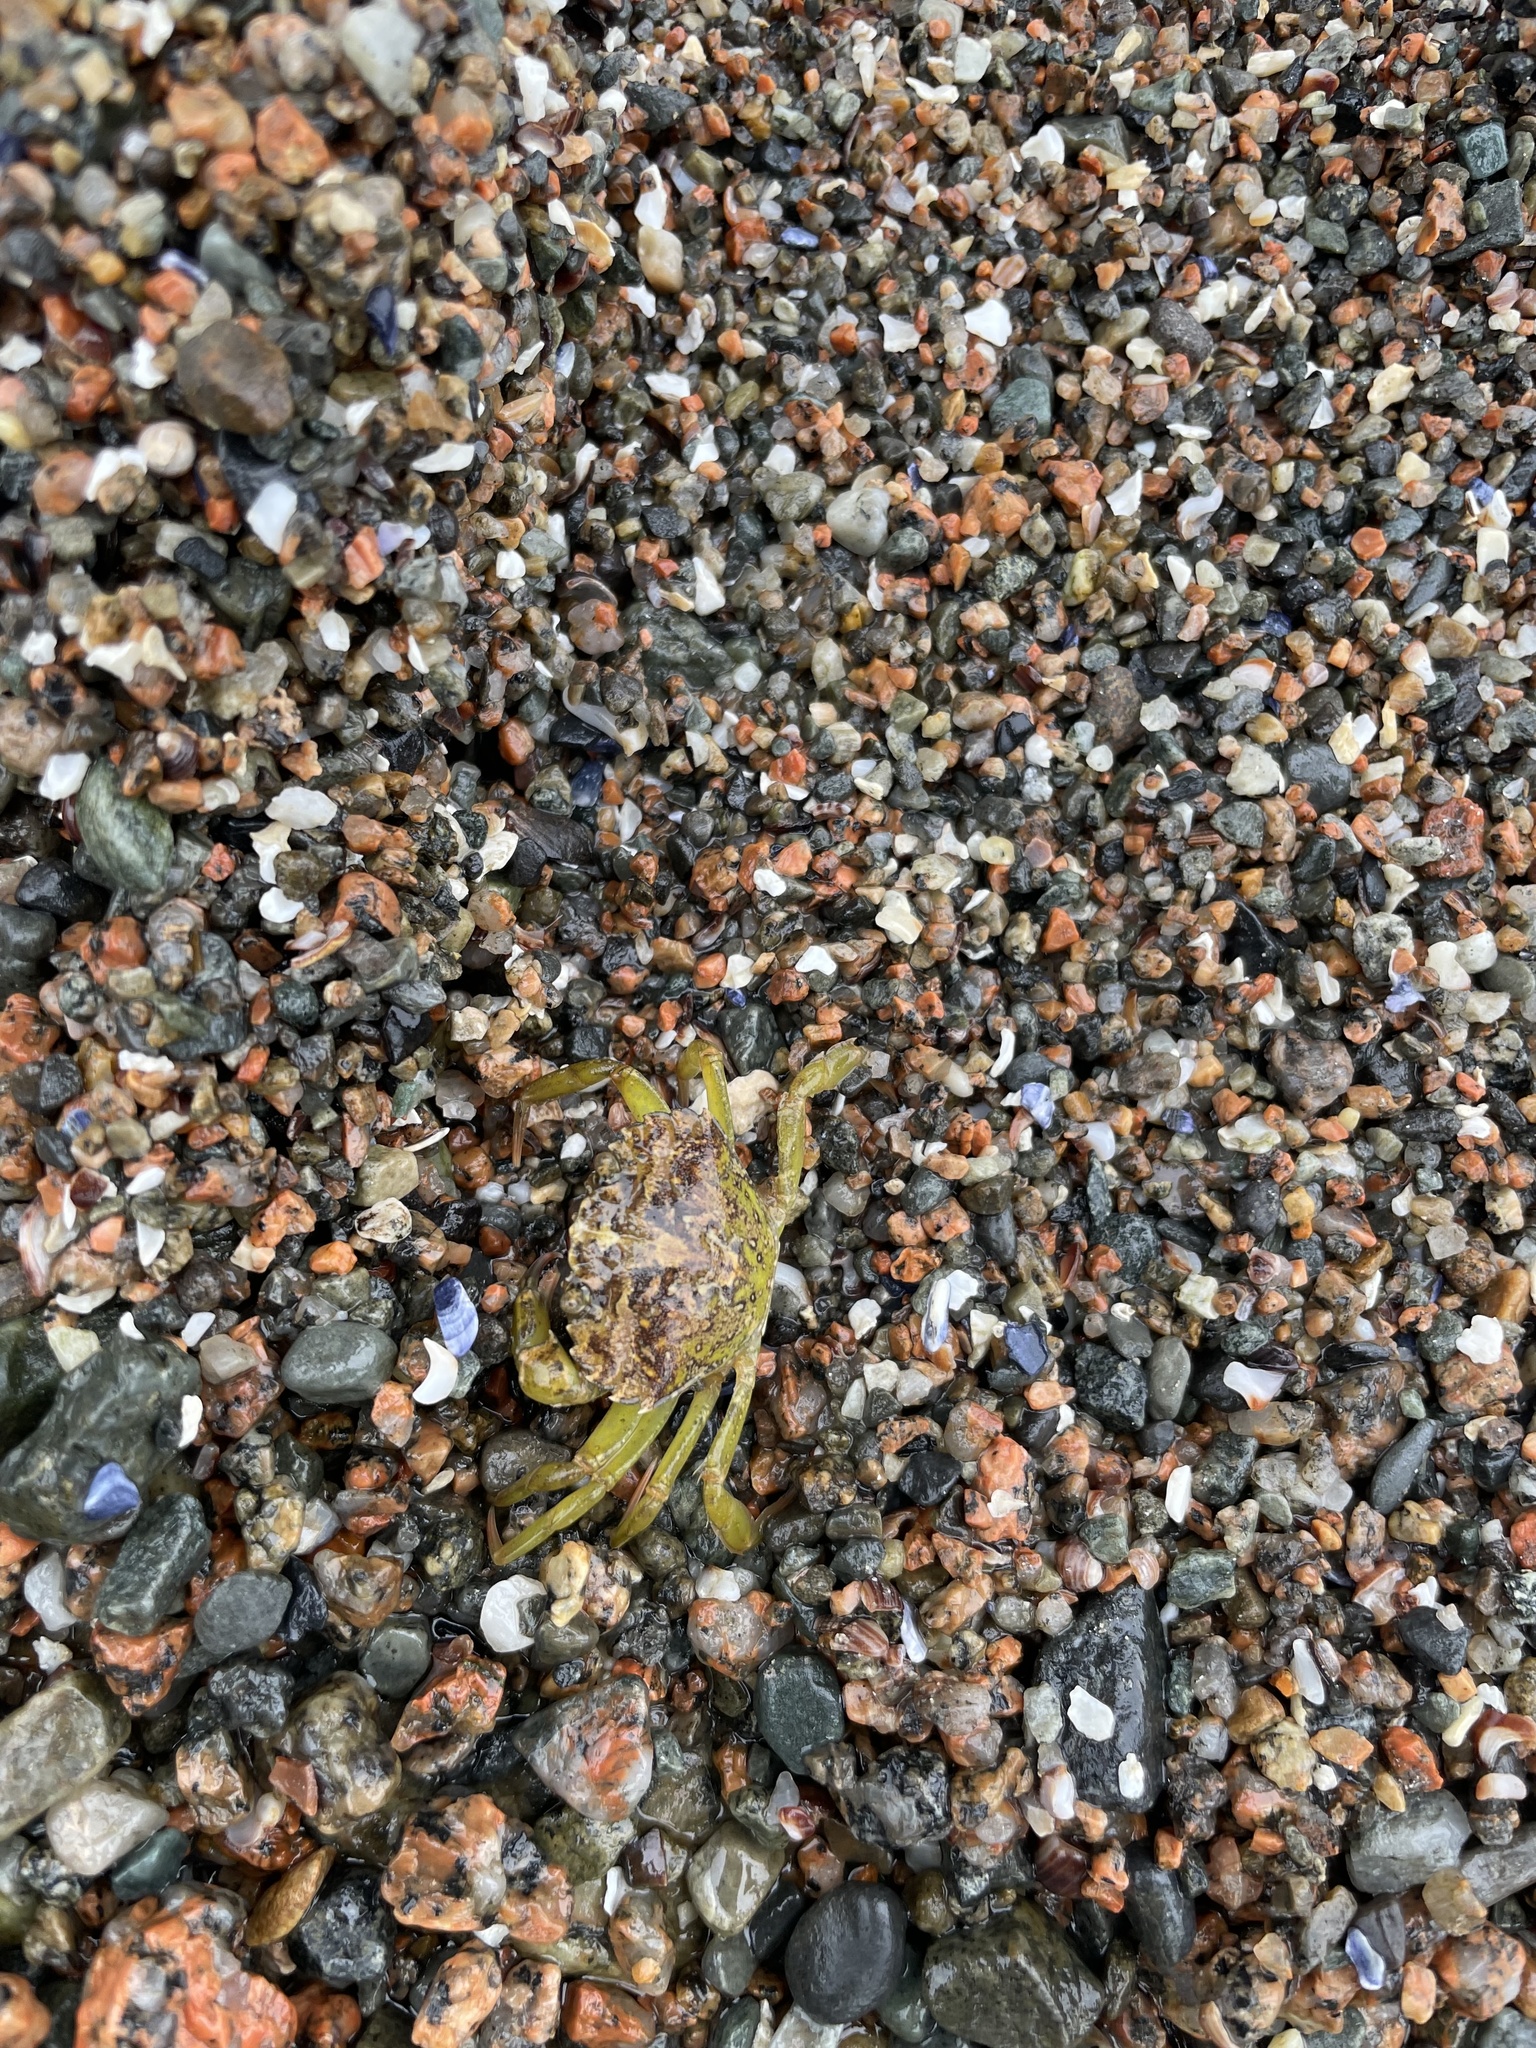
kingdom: Animalia
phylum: Arthropoda
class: Malacostraca
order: Decapoda
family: Carcinidae
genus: Carcinus
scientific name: Carcinus maenas
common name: European green crab
